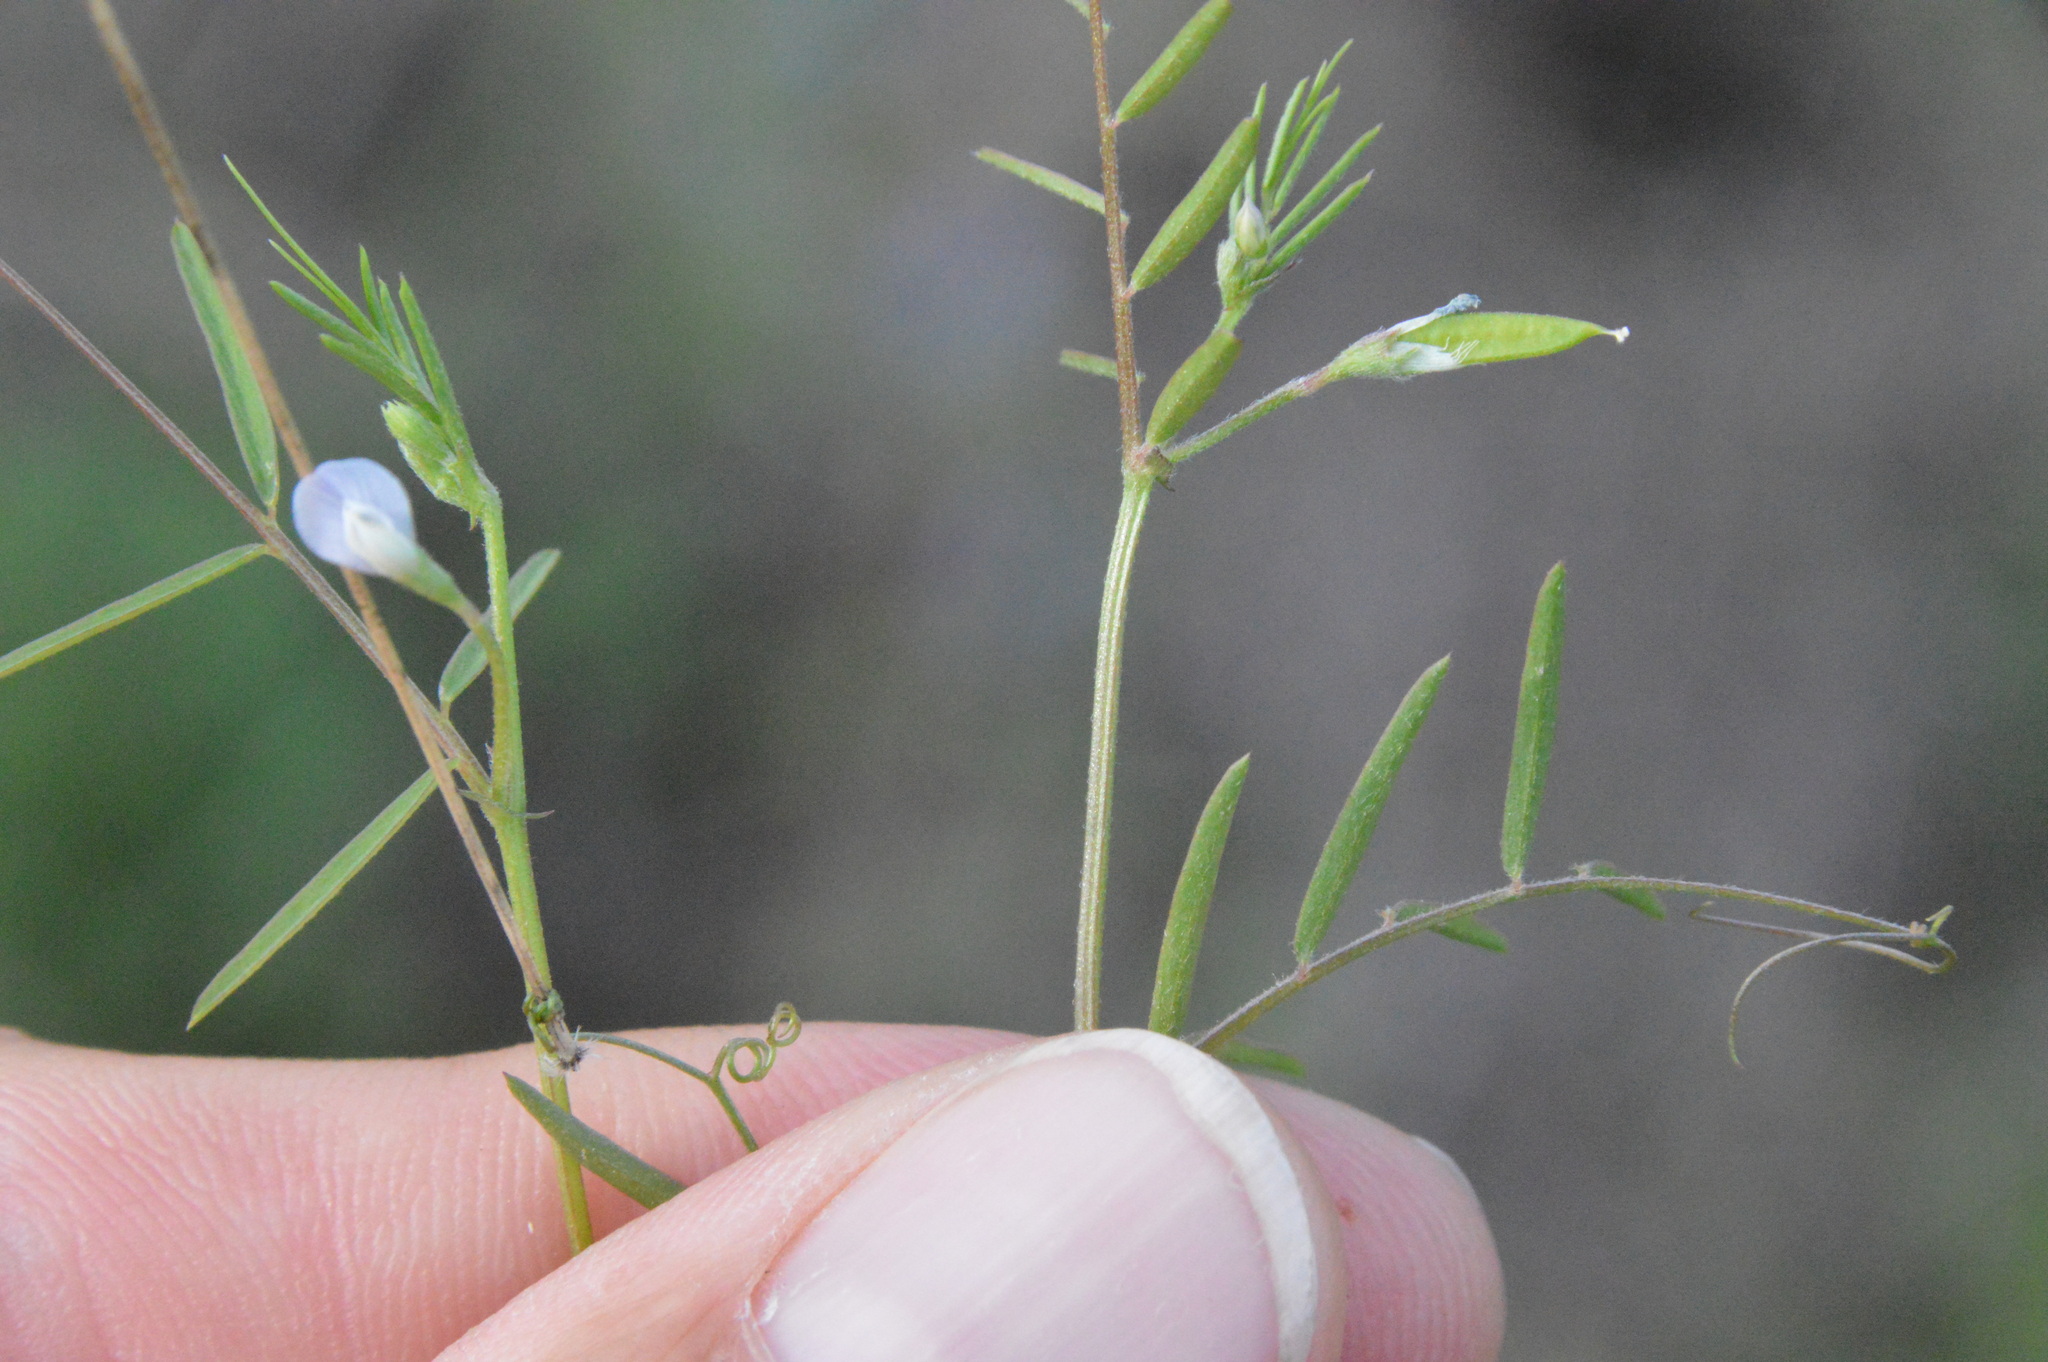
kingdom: Plantae
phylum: Tracheophyta
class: Magnoliopsida
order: Fabales
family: Fabaceae
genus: Vicia
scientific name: Vicia minutiflora
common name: Pygmy-flower vetch
